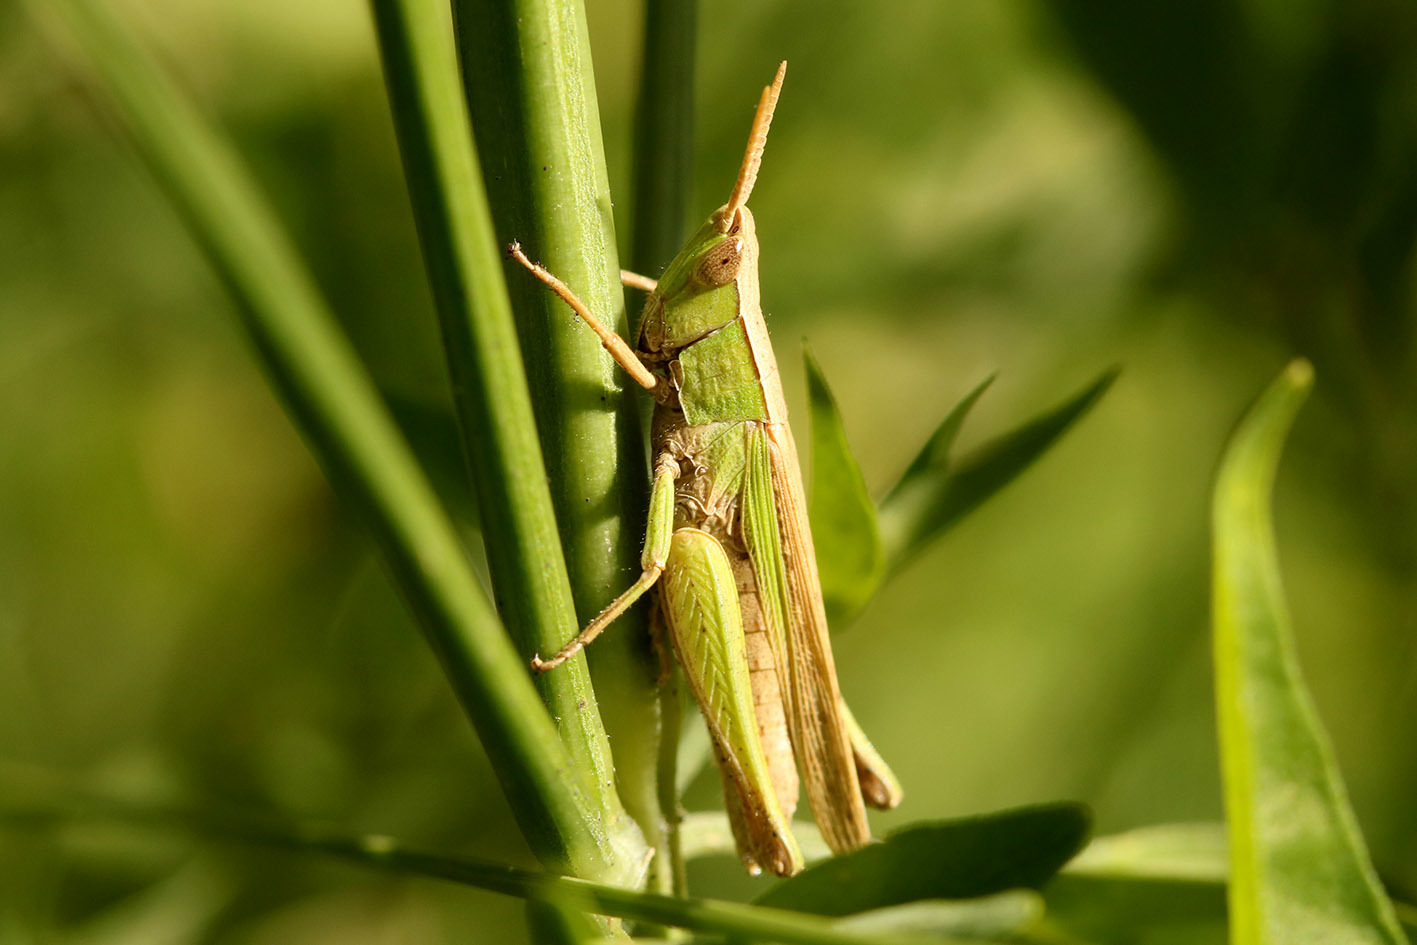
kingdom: Animalia
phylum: Arthropoda
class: Insecta
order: Orthoptera
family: Acrididae
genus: Laplatacris
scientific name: Laplatacris dispar
